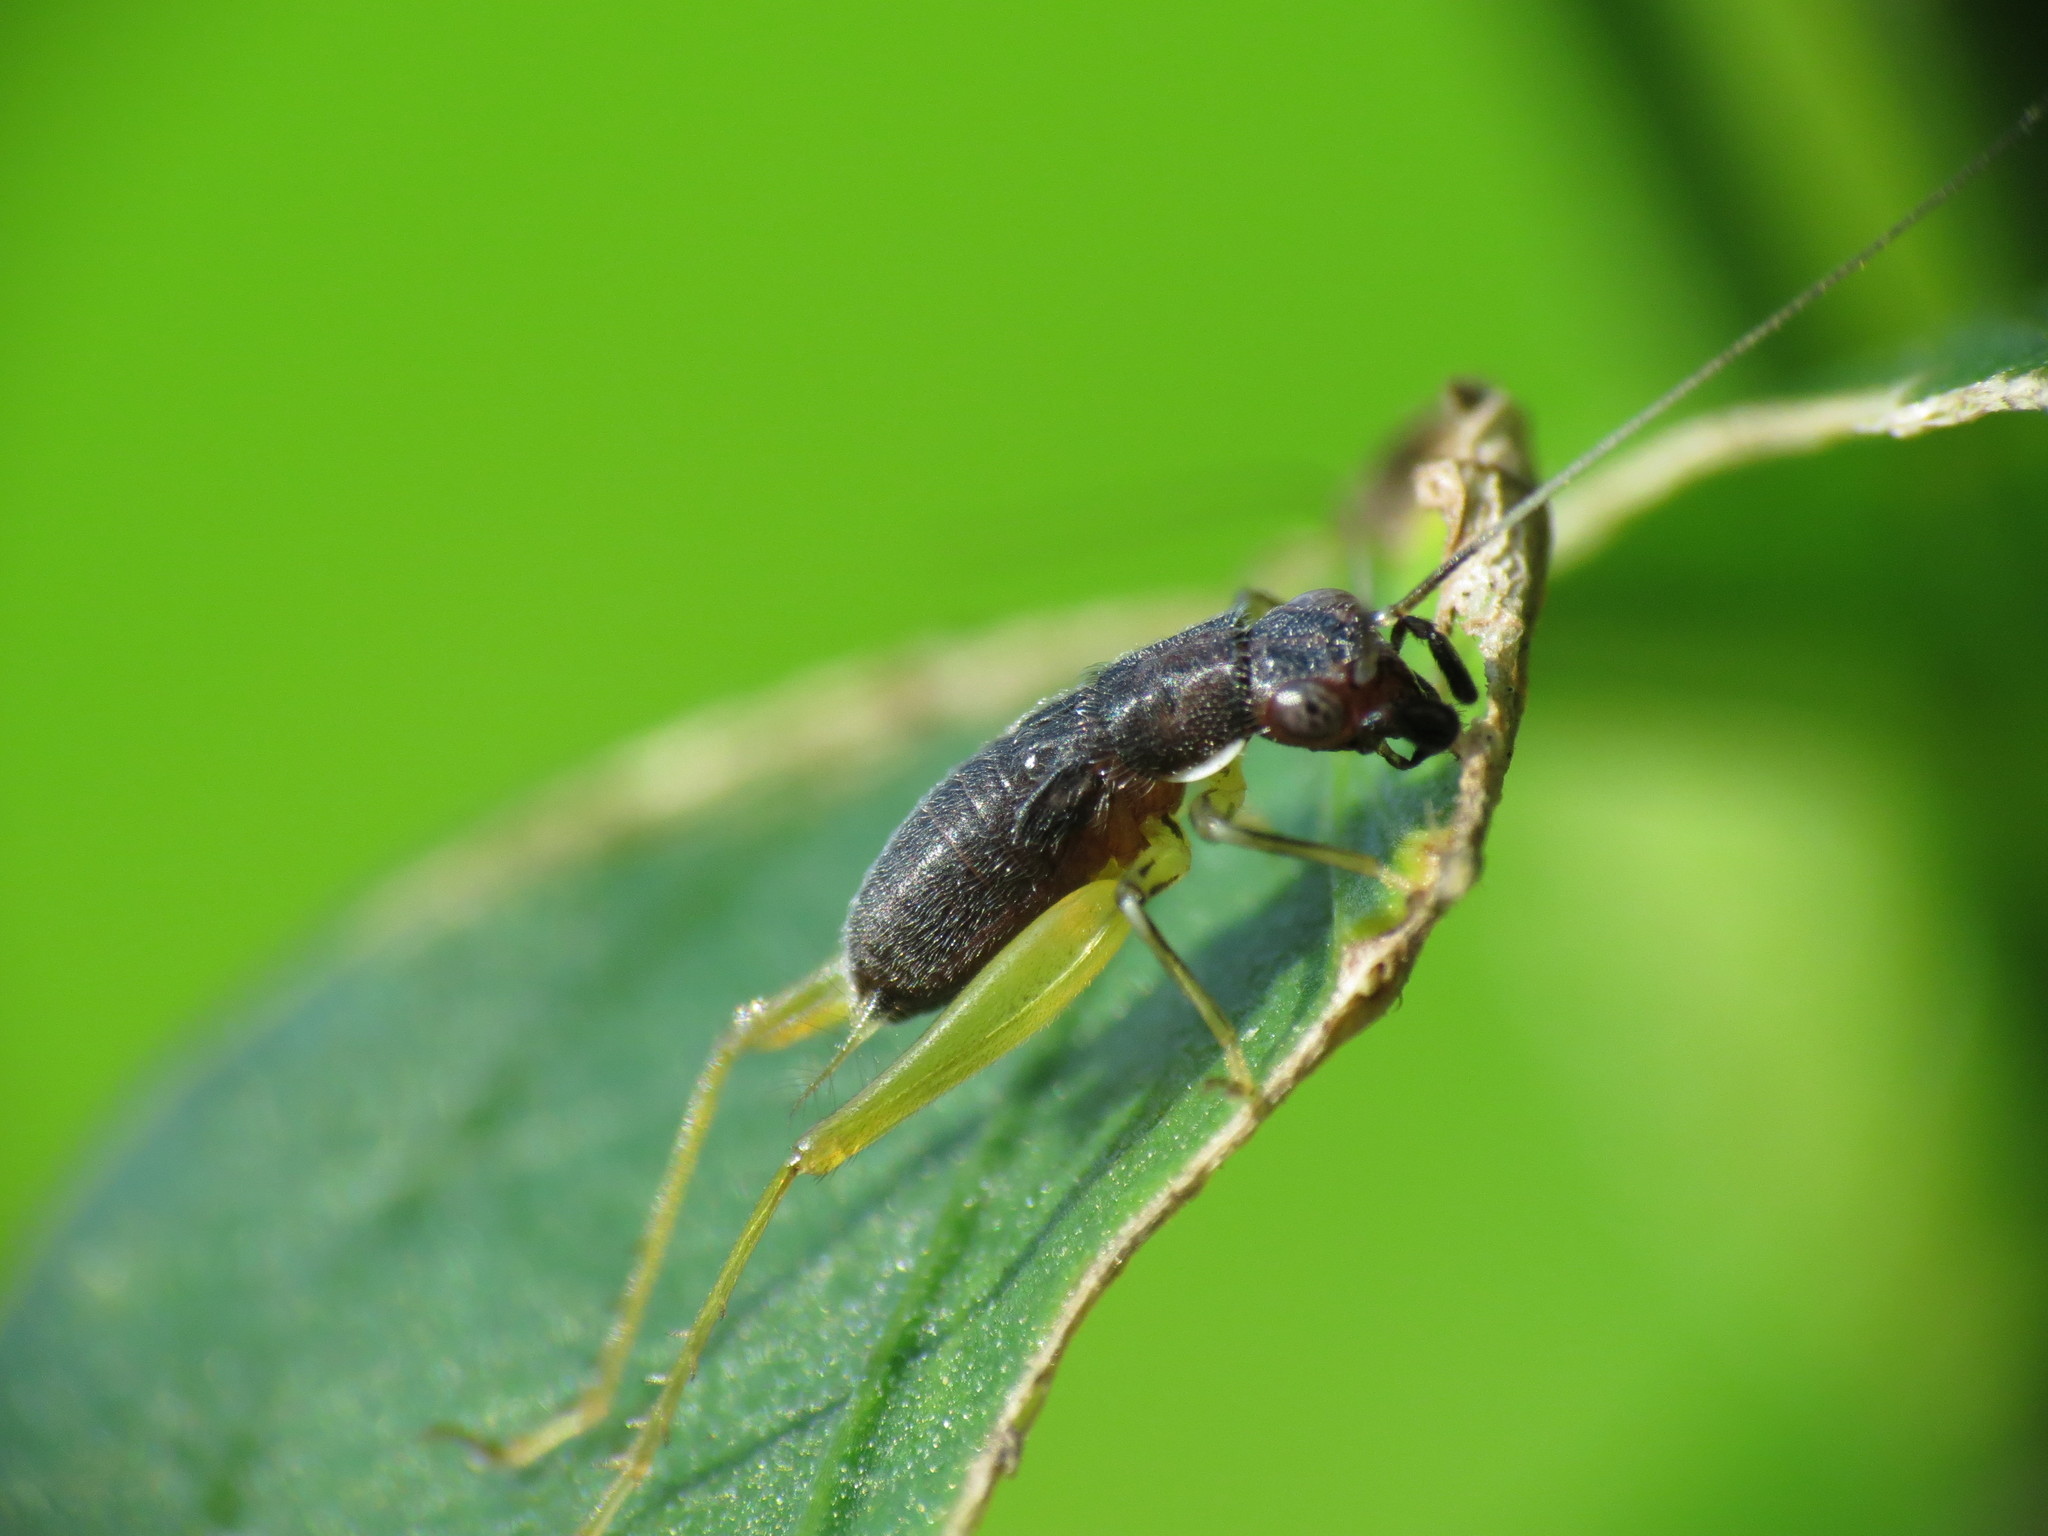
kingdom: Animalia
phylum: Arthropoda
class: Insecta
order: Orthoptera
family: Trigonidiidae
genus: Phyllopalpus
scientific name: Phyllopalpus pulchellus
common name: Handsome trig
